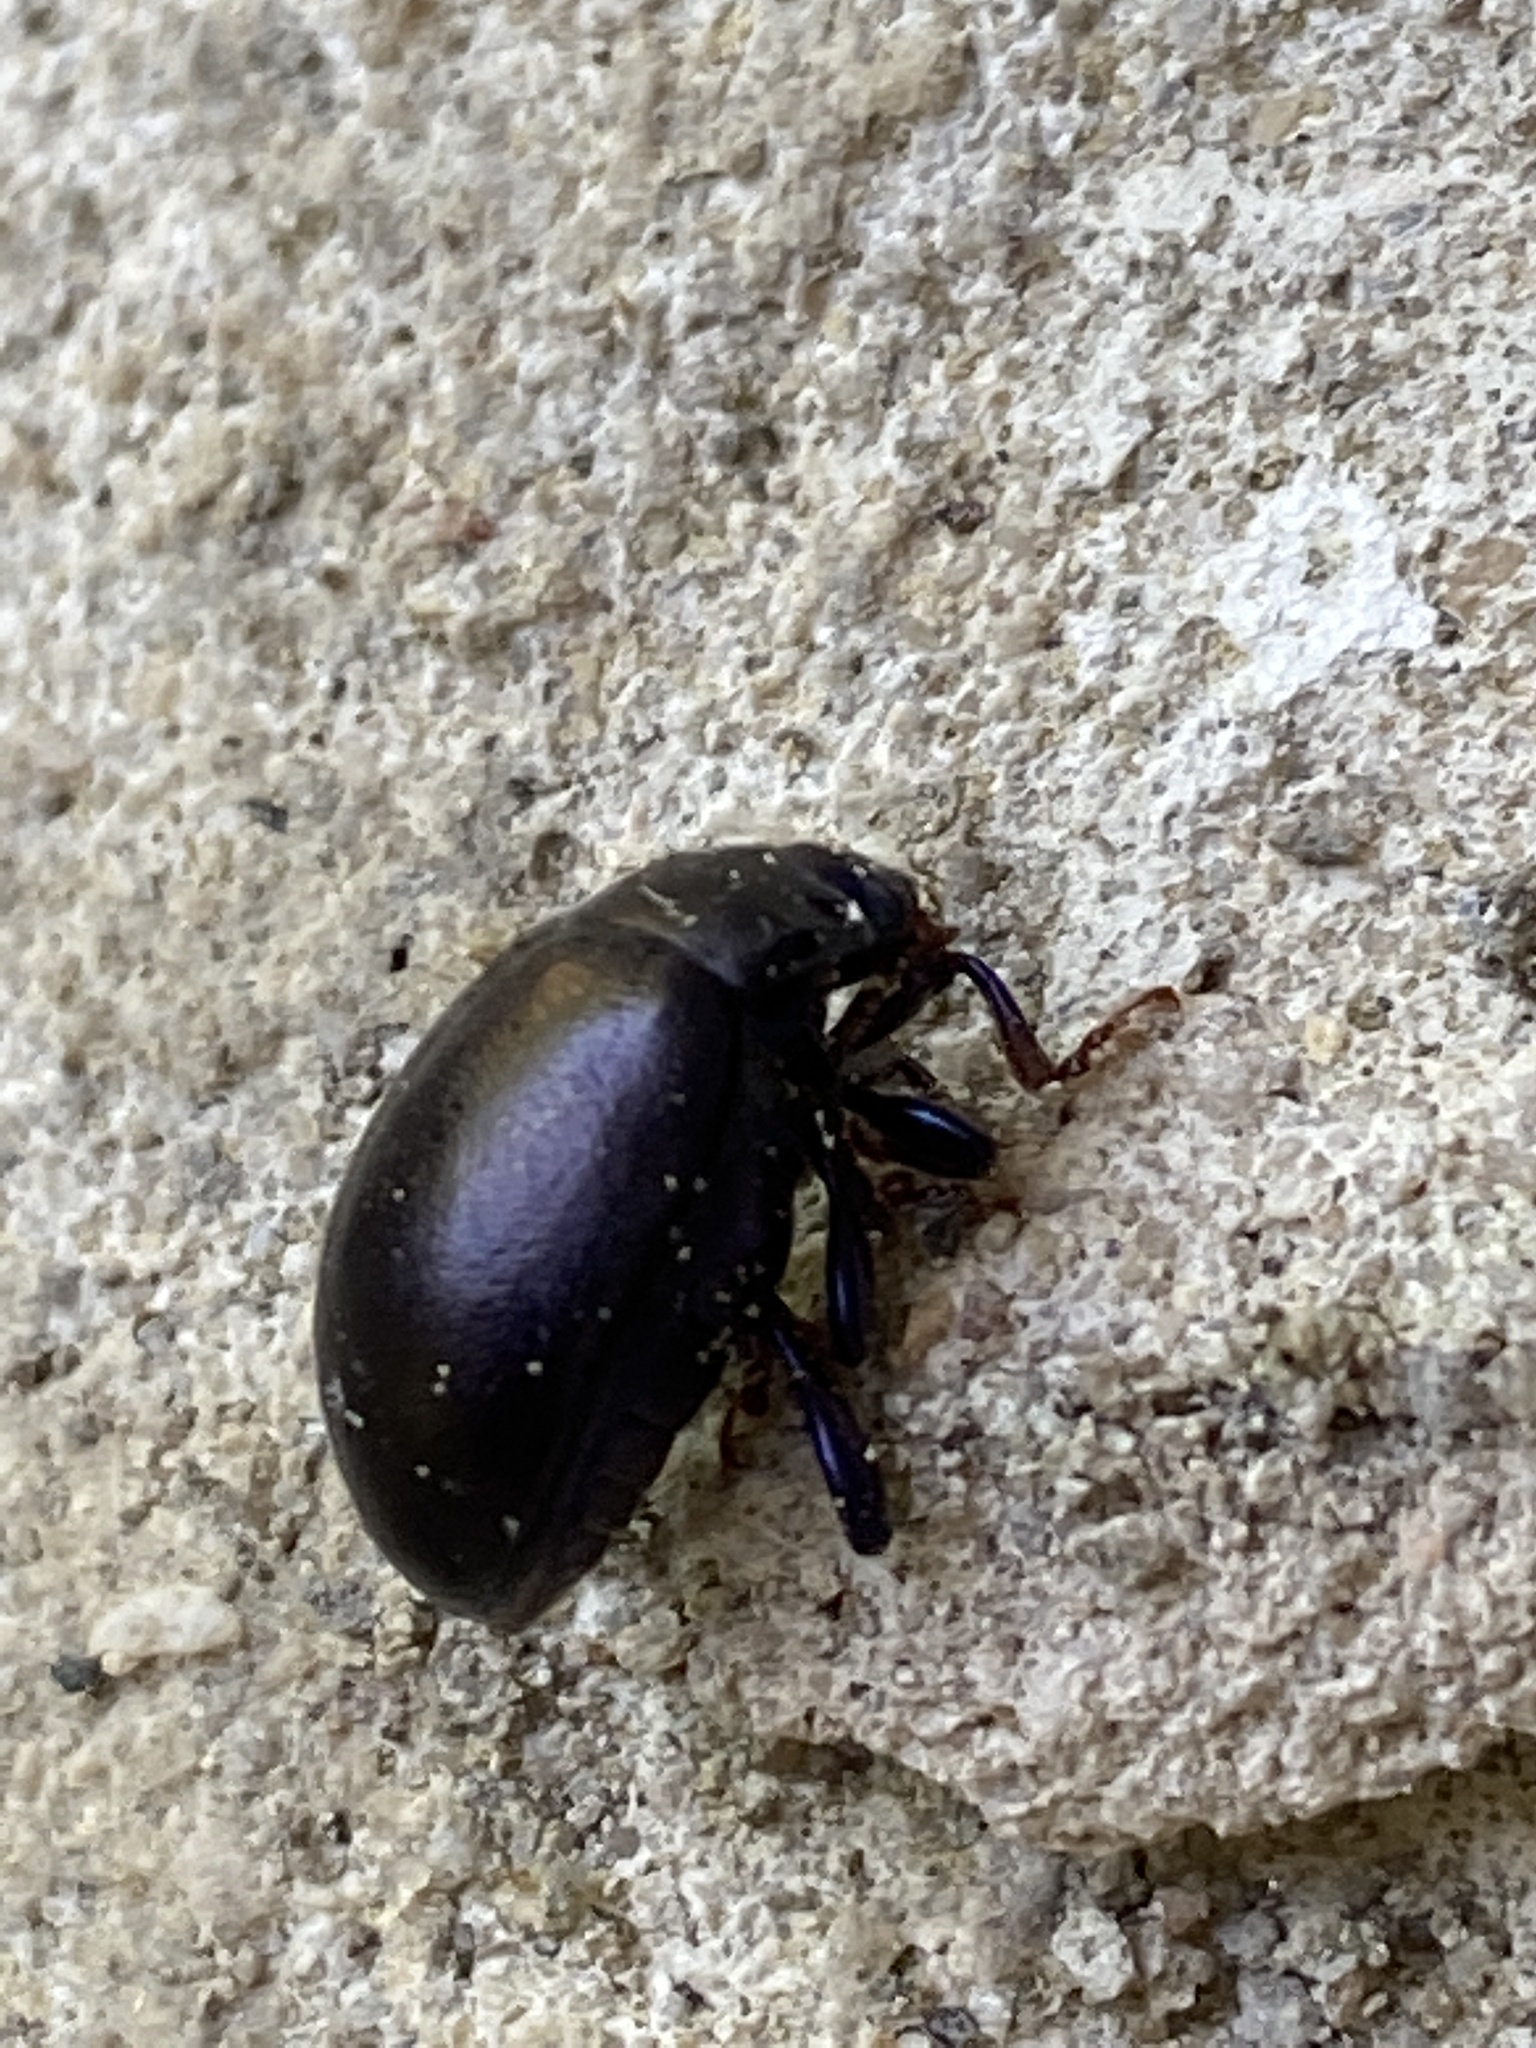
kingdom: Animalia
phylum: Arthropoda
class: Insecta
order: Coleoptera
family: Chrysomelidae
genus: Chrysolina
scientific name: Chrysolina sturmi
